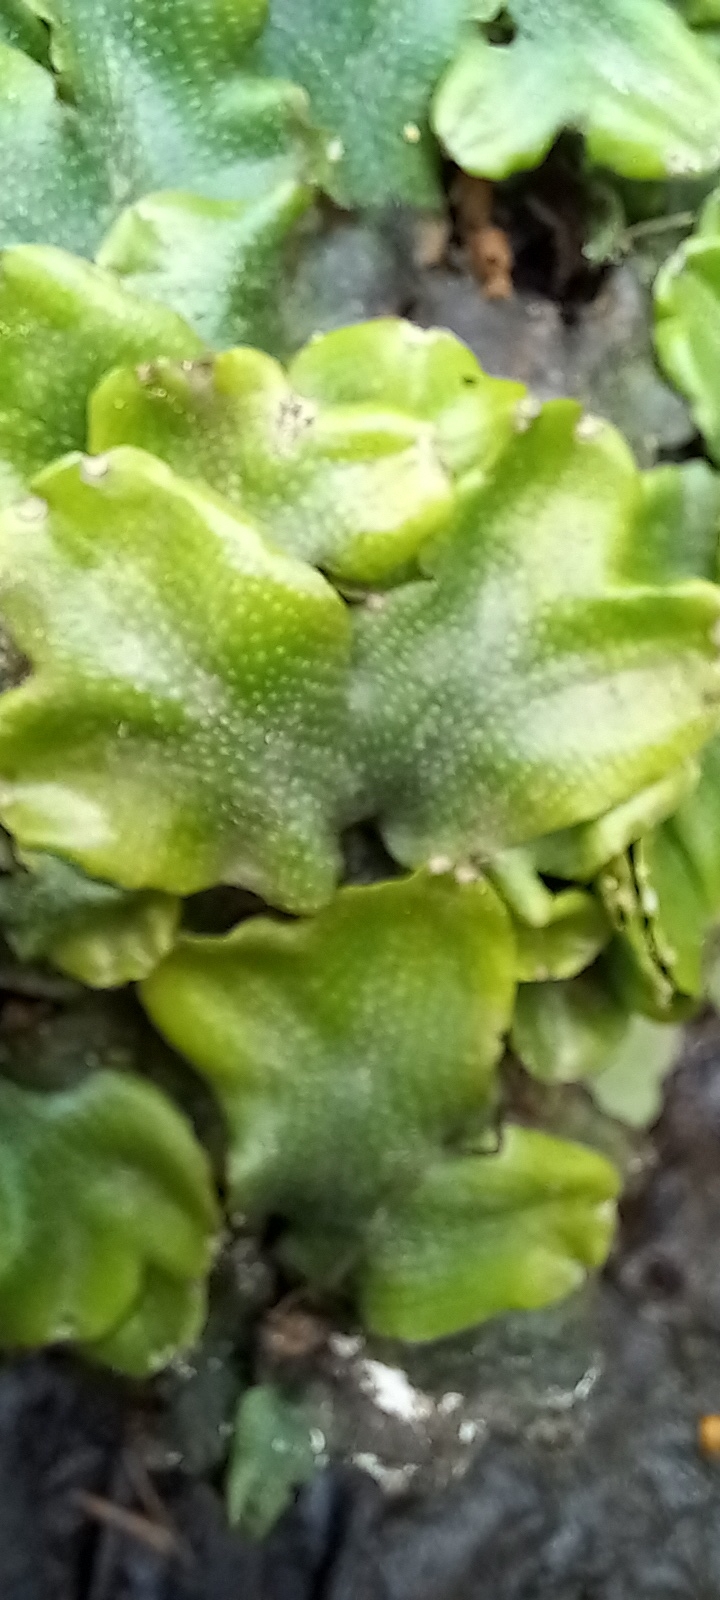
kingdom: Plantae
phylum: Marchantiophyta
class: Marchantiopsida
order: Marchantiales
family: Conocephalaceae
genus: Conocephalum
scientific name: Conocephalum conicum
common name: Great scented liverwort
